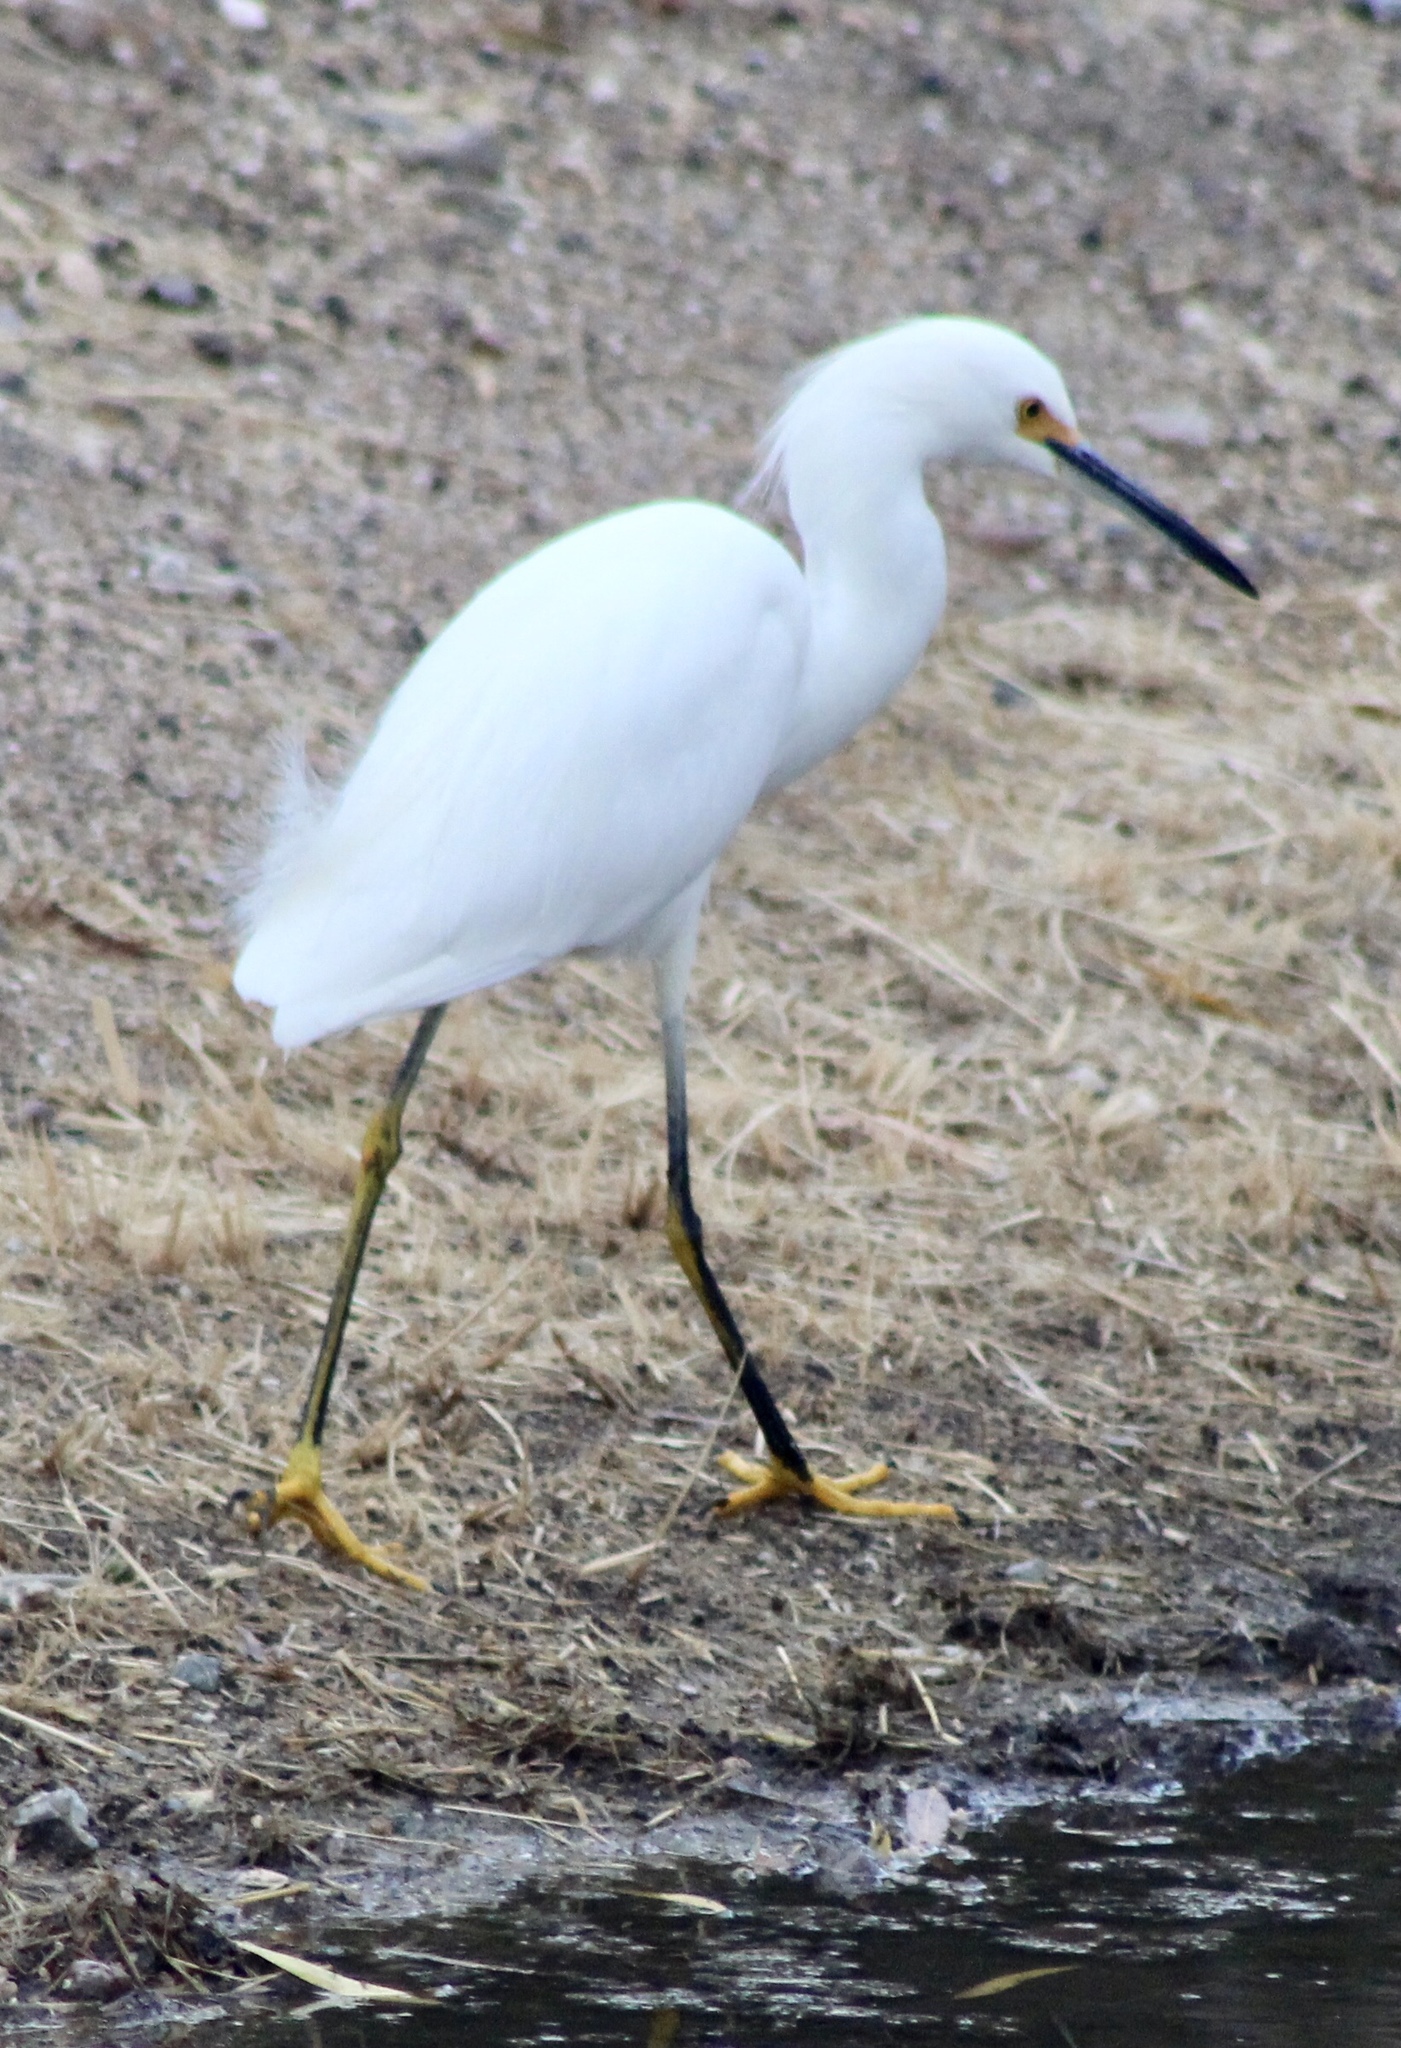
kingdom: Animalia
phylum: Chordata
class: Aves
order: Pelecaniformes
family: Ardeidae
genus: Egretta
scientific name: Egretta thula
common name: Snowy egret
